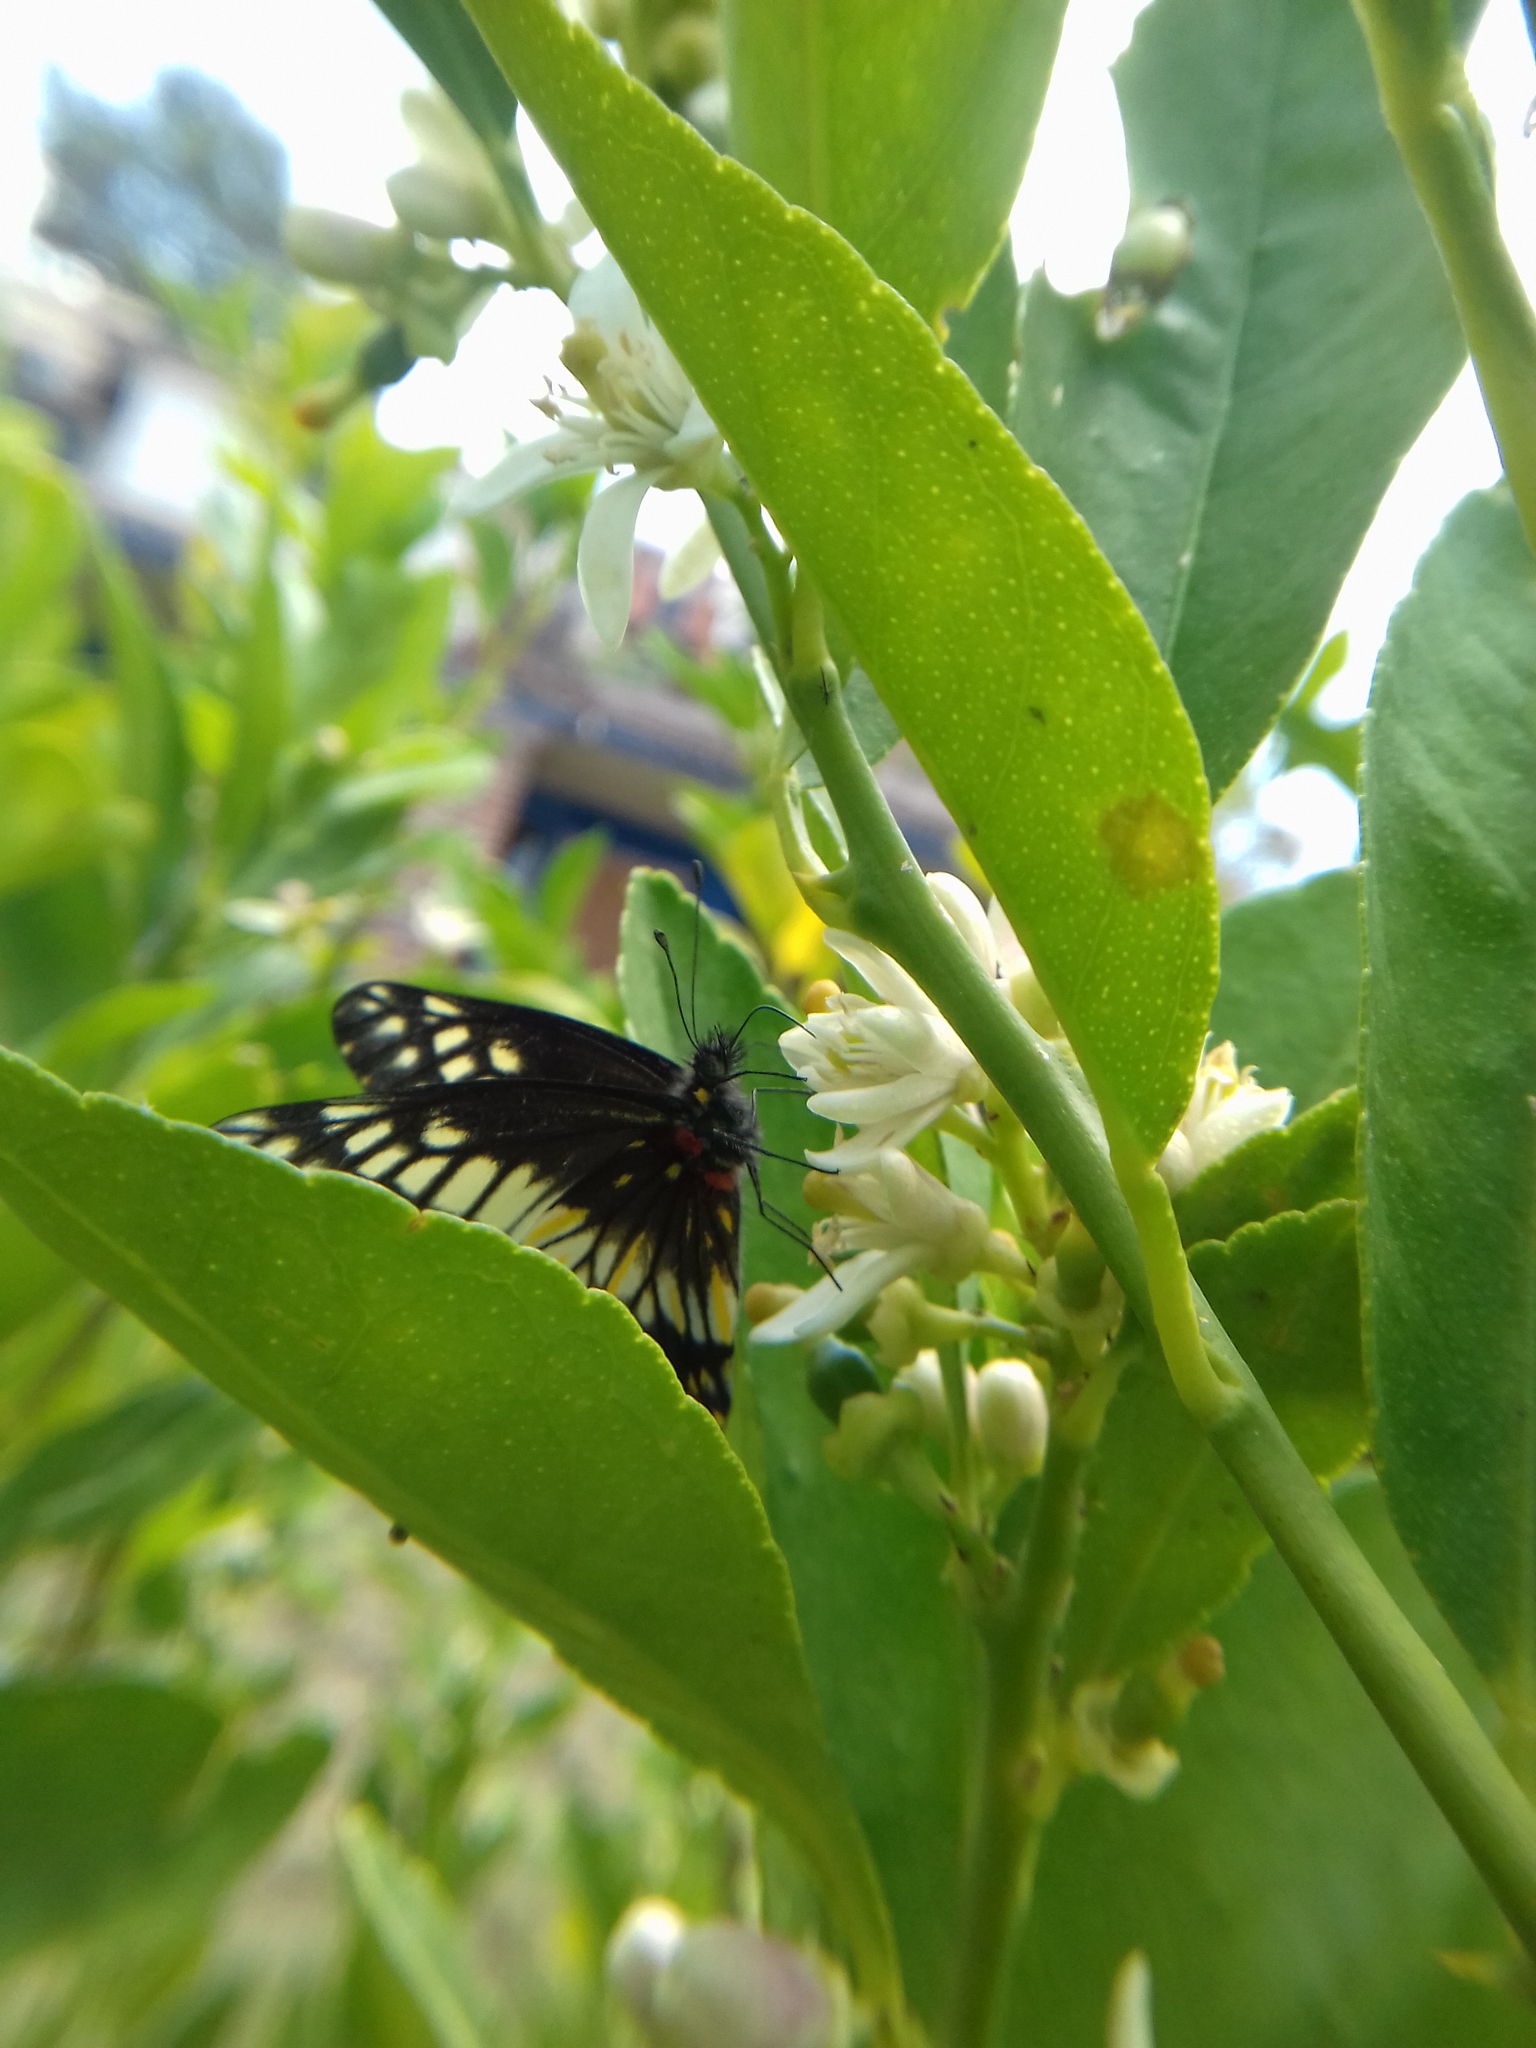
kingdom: Animalia
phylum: Arthropoda
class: Insecta
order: Lepidoptera
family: Pieridae
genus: Archonias
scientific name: Archonias nimbice
